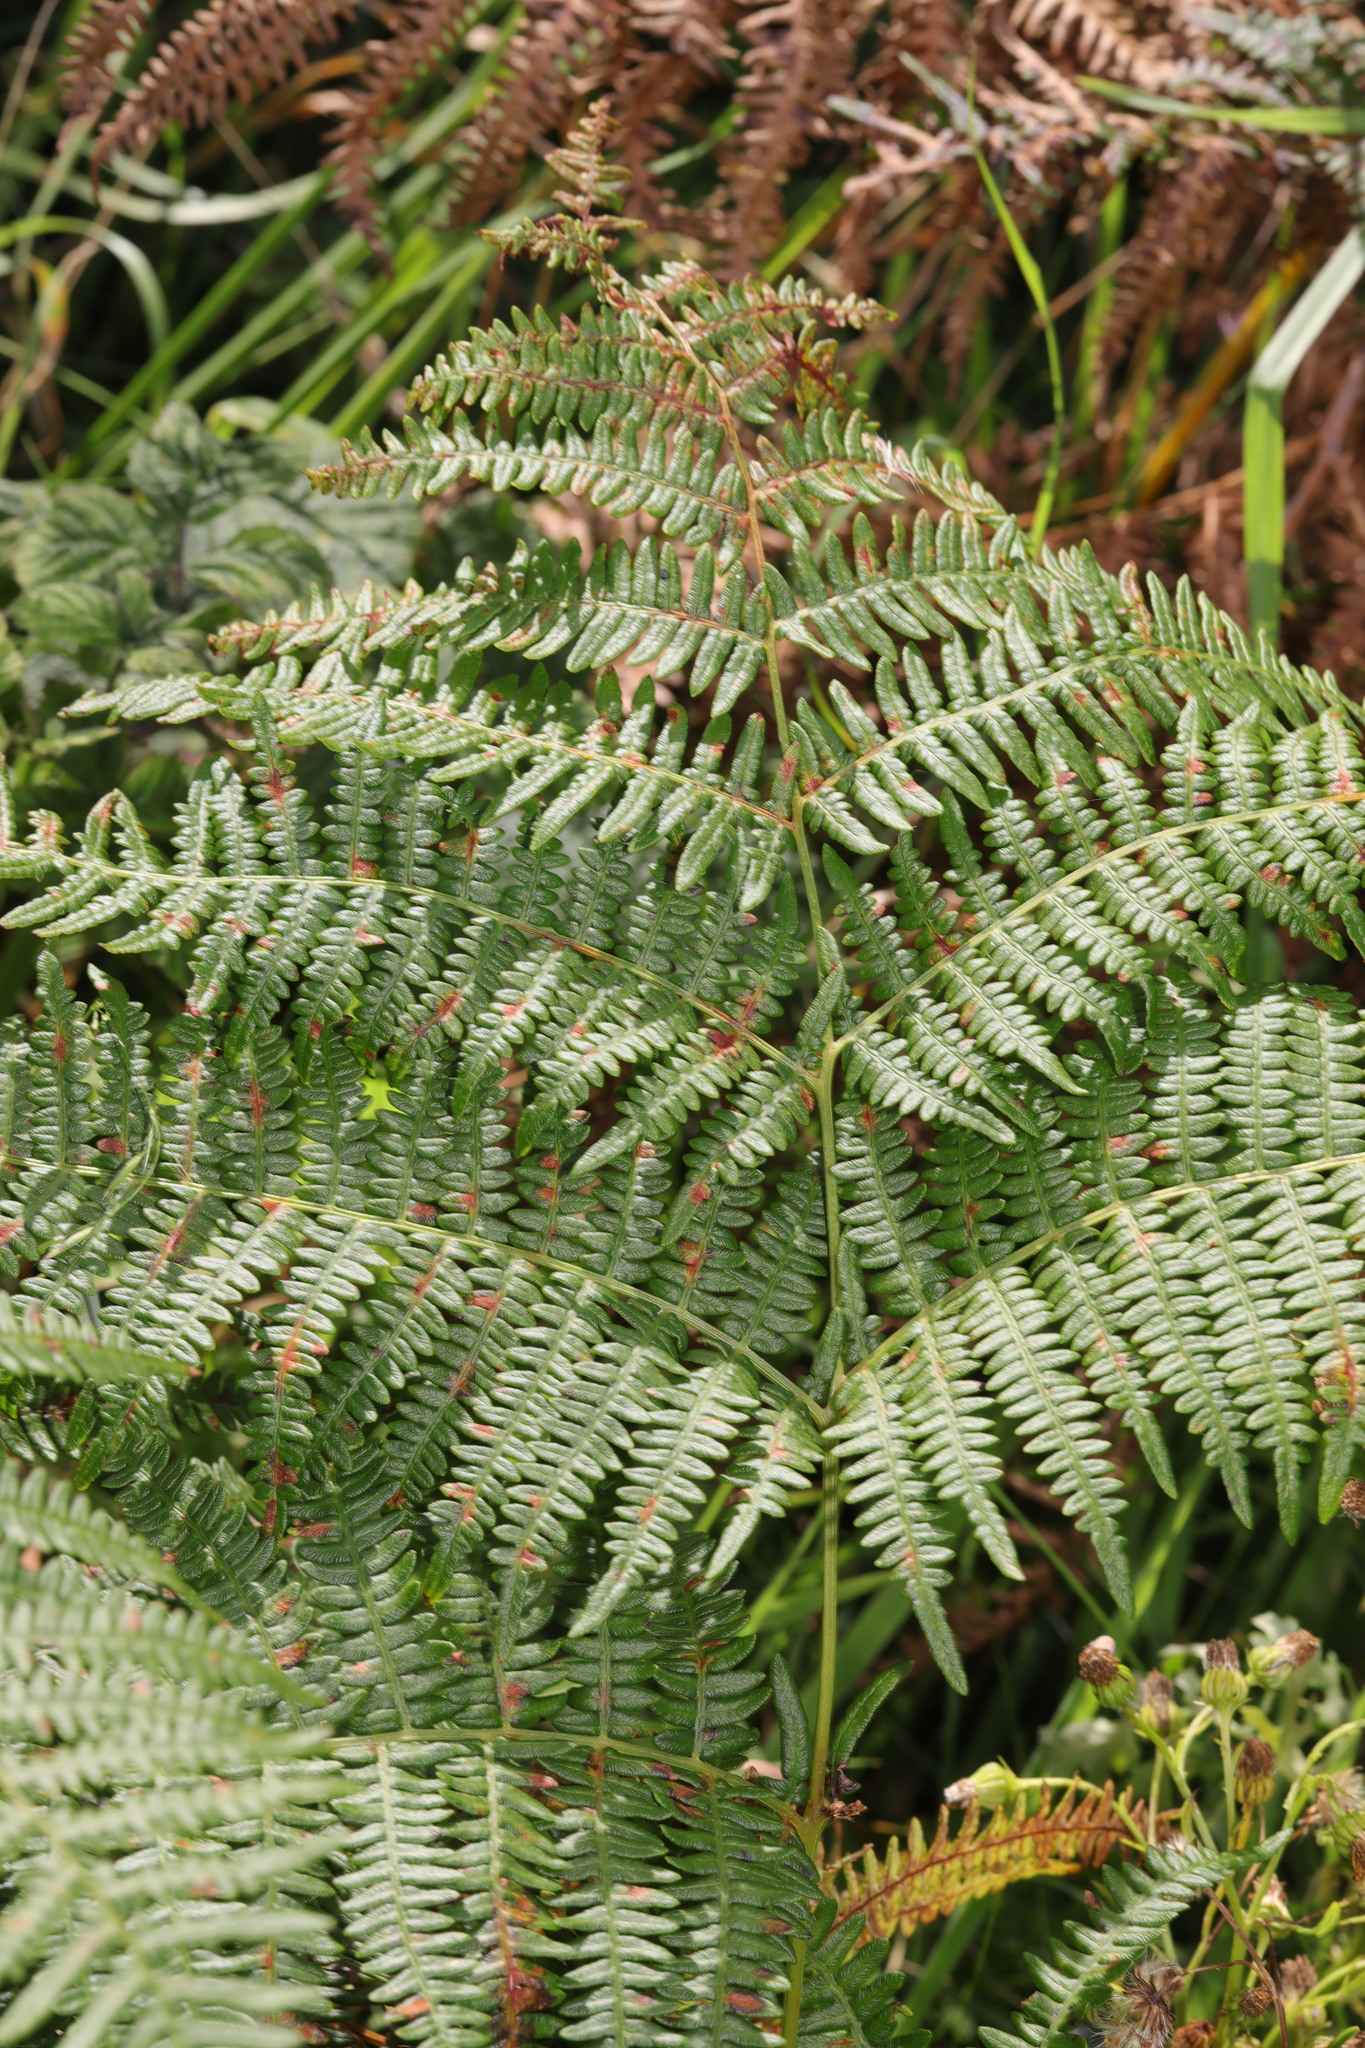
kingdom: Plantae
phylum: Tracheophyta
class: Polypodiopsida
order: Polypodiales
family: Dennstaedtiaceae
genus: Pteridium
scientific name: Pteridium aquilinum
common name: Bracken
